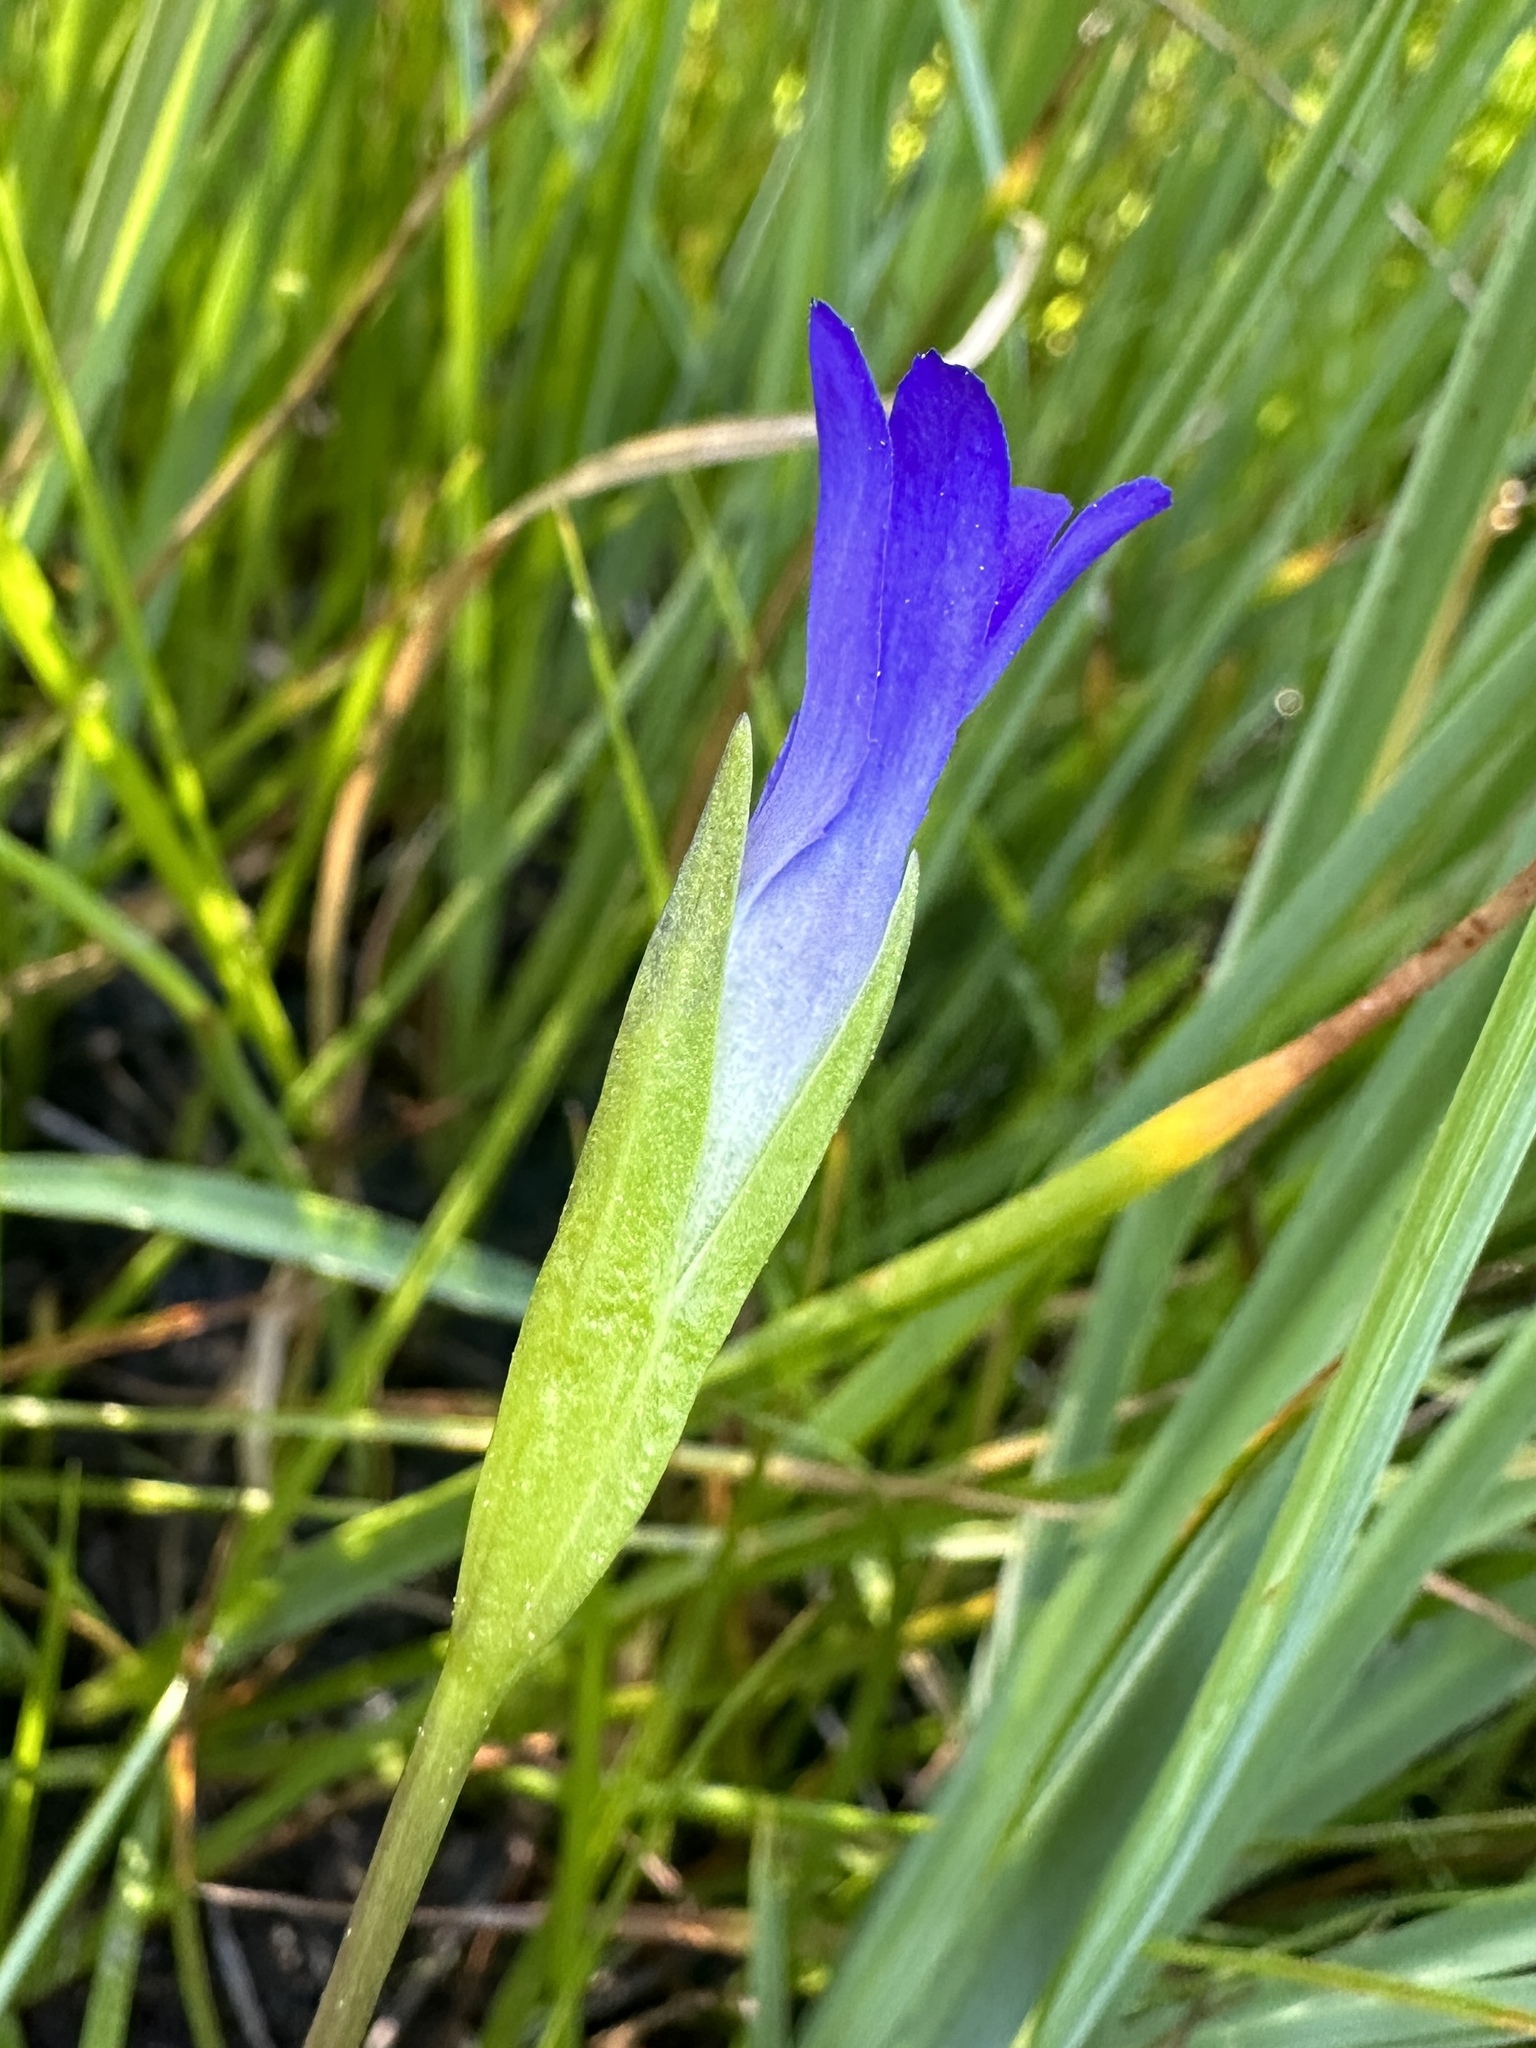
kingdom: Plantae
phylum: Tracheophyta
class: Magnoliopsida
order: Gentianales
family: Gentianaceae
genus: Gentianopsis
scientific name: Gentianopsis simplex
